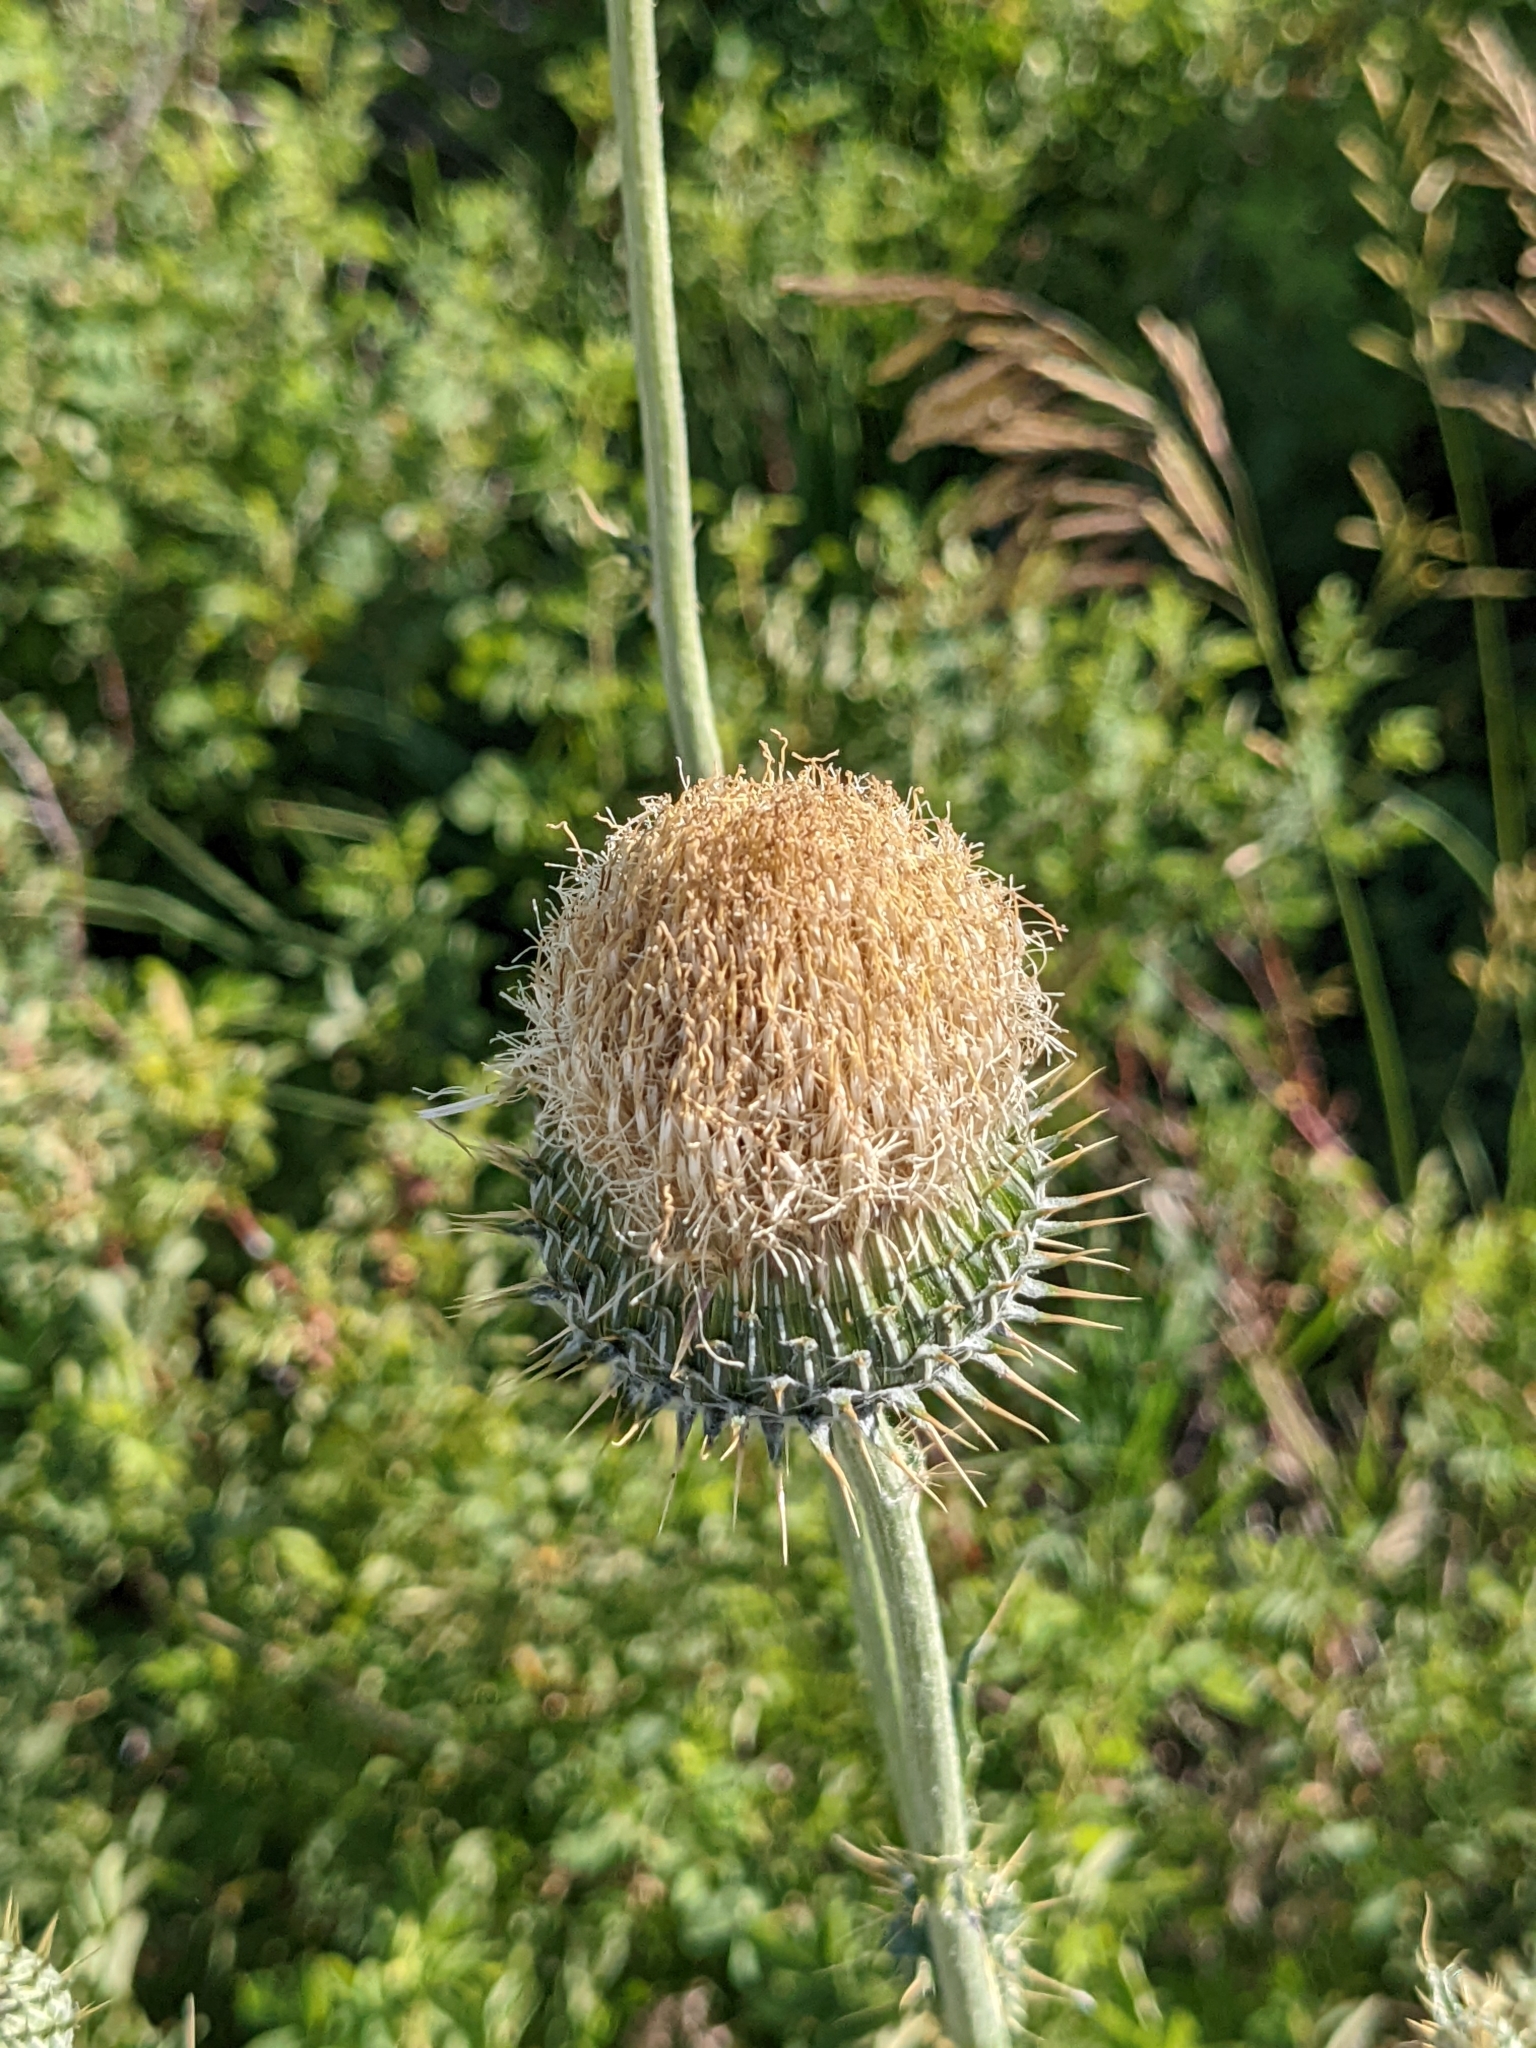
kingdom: Plantae
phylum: Tracheophyta
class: Magnoliopsida
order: Asterales
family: Asteraceae
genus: Cirsium
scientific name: Cirsium neomexicanum
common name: New mexico thistle
